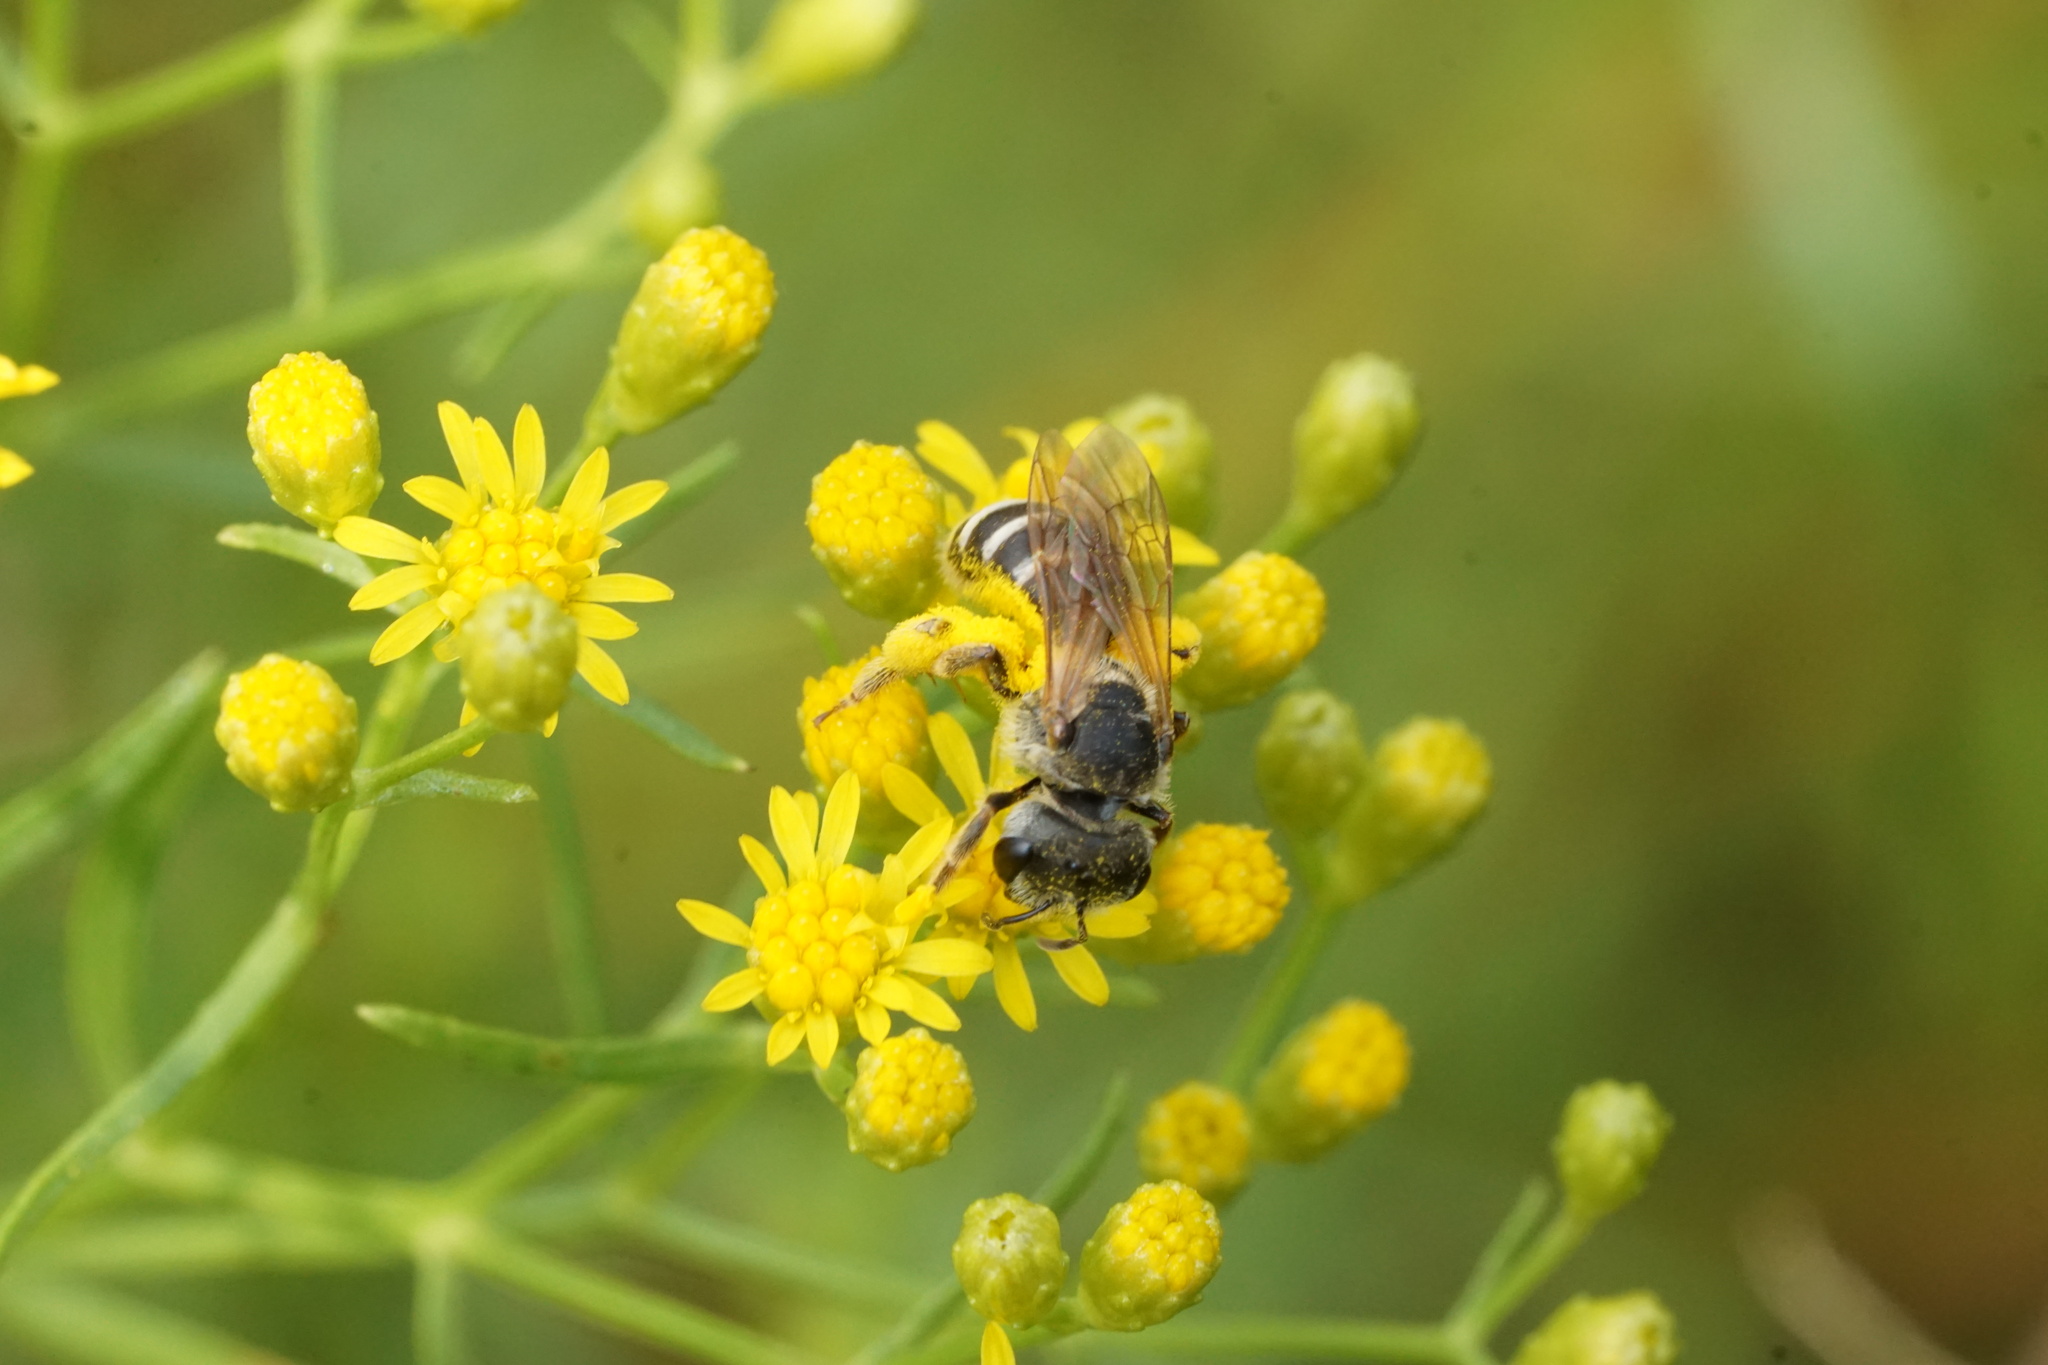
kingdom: Animalia
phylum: Arthropoda
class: Insecta
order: Hymenoptera
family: Halictidae
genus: Halictus
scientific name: Halictus ligatus
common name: Ligated furrow bee
